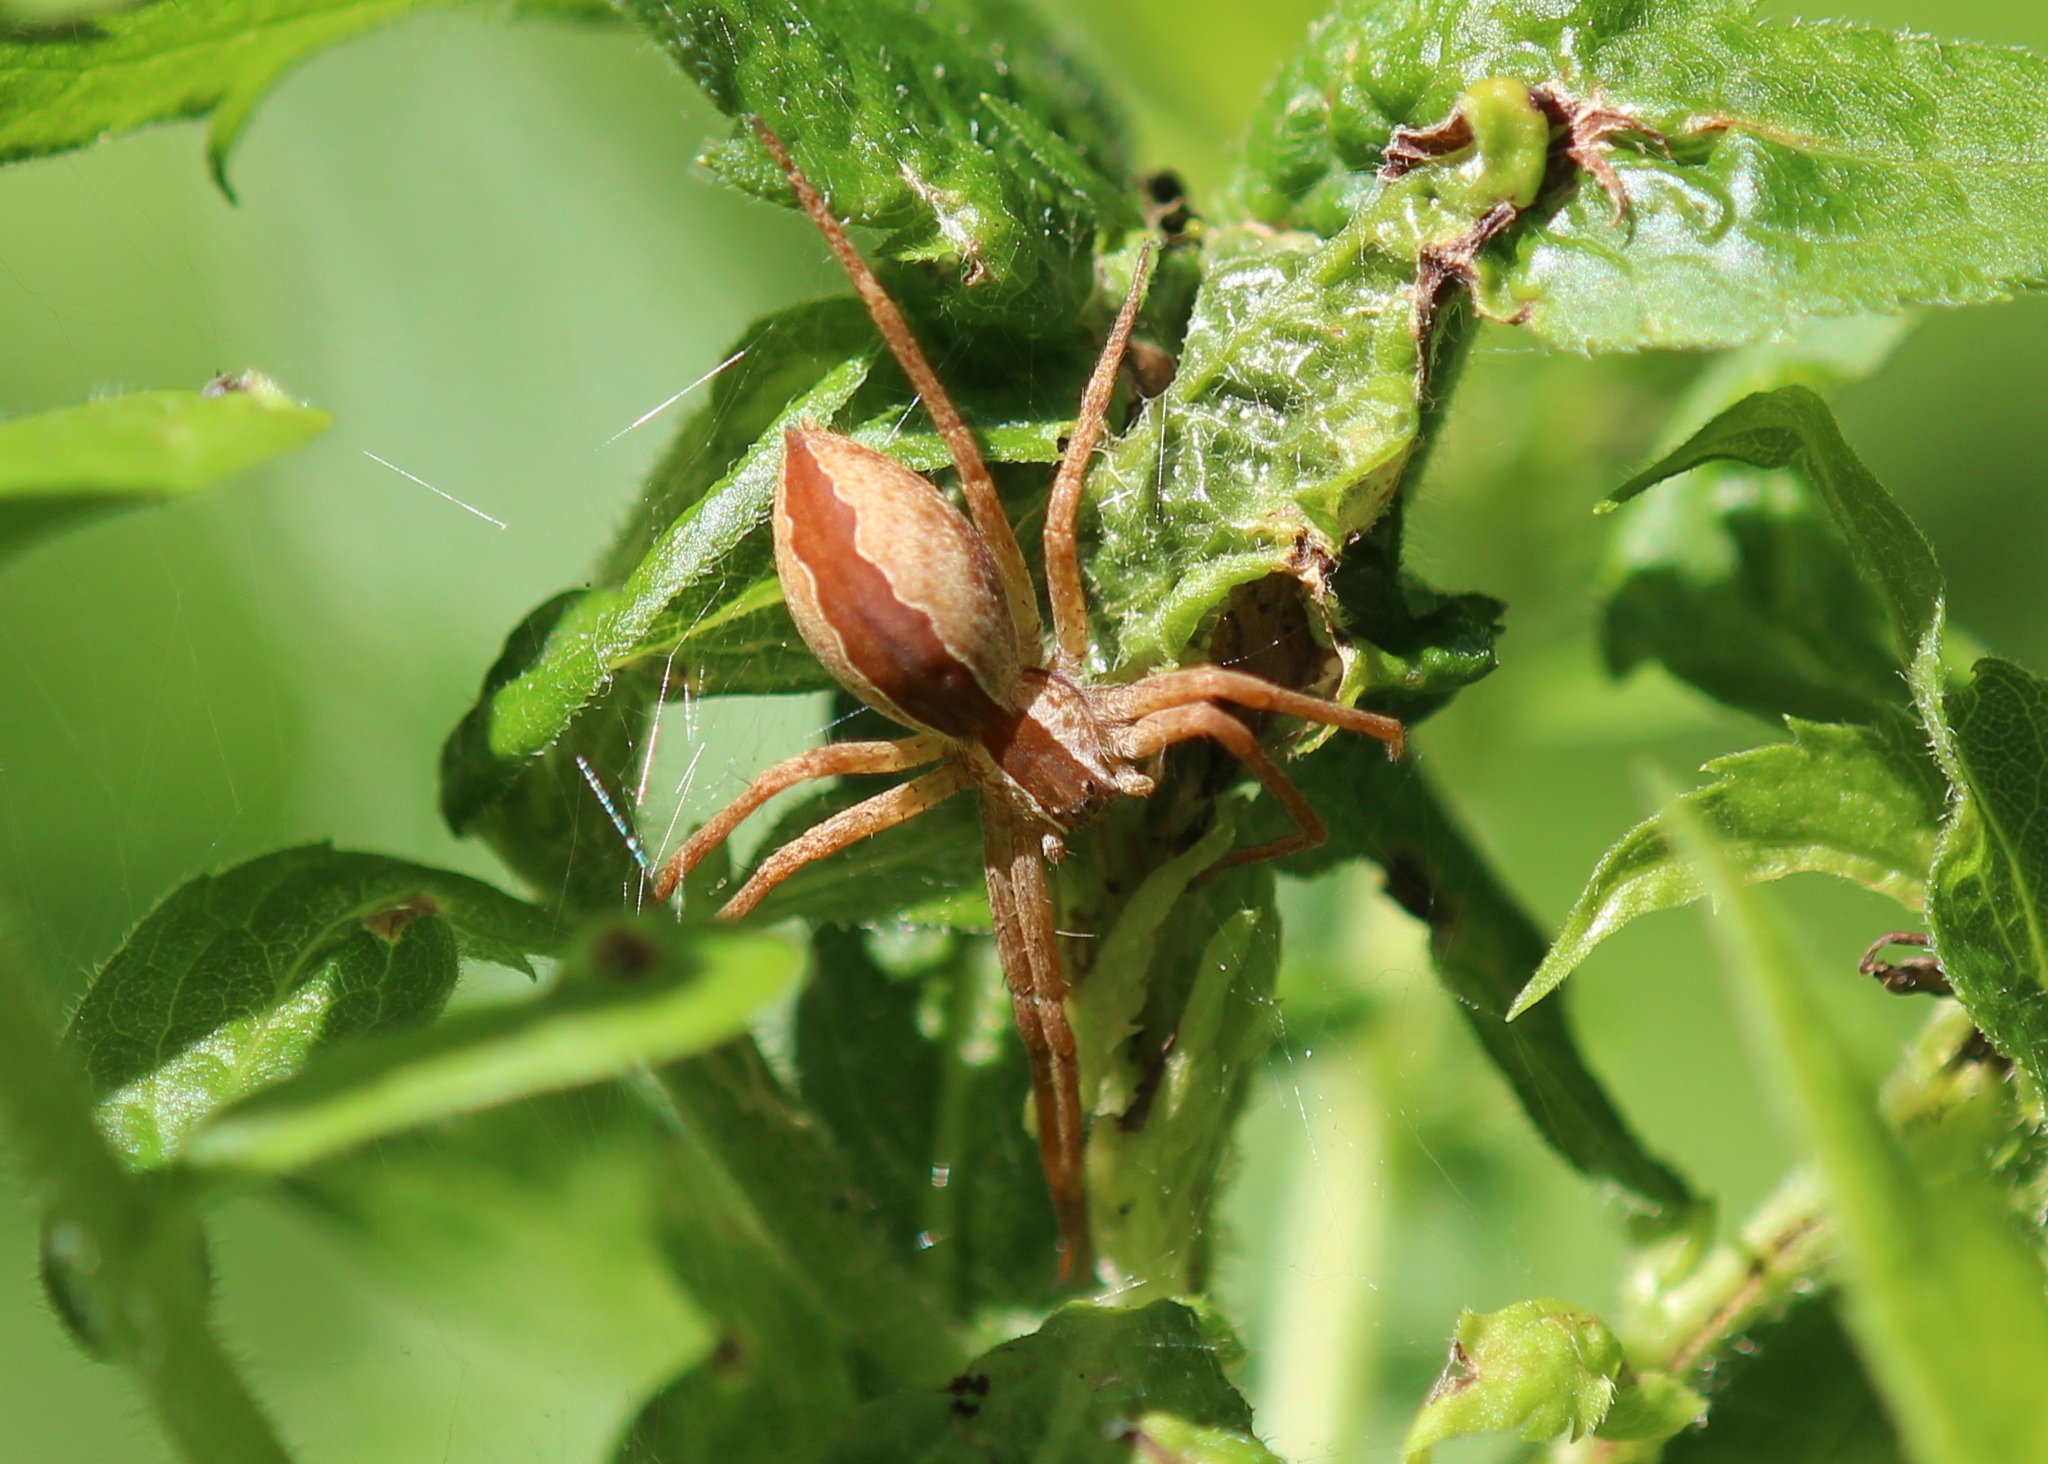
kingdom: Animalia
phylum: Arthropoda
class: Arachnida
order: Araneae
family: Pisauridae
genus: Pisaurina
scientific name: Pisaurina mira
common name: American nursery web spider
